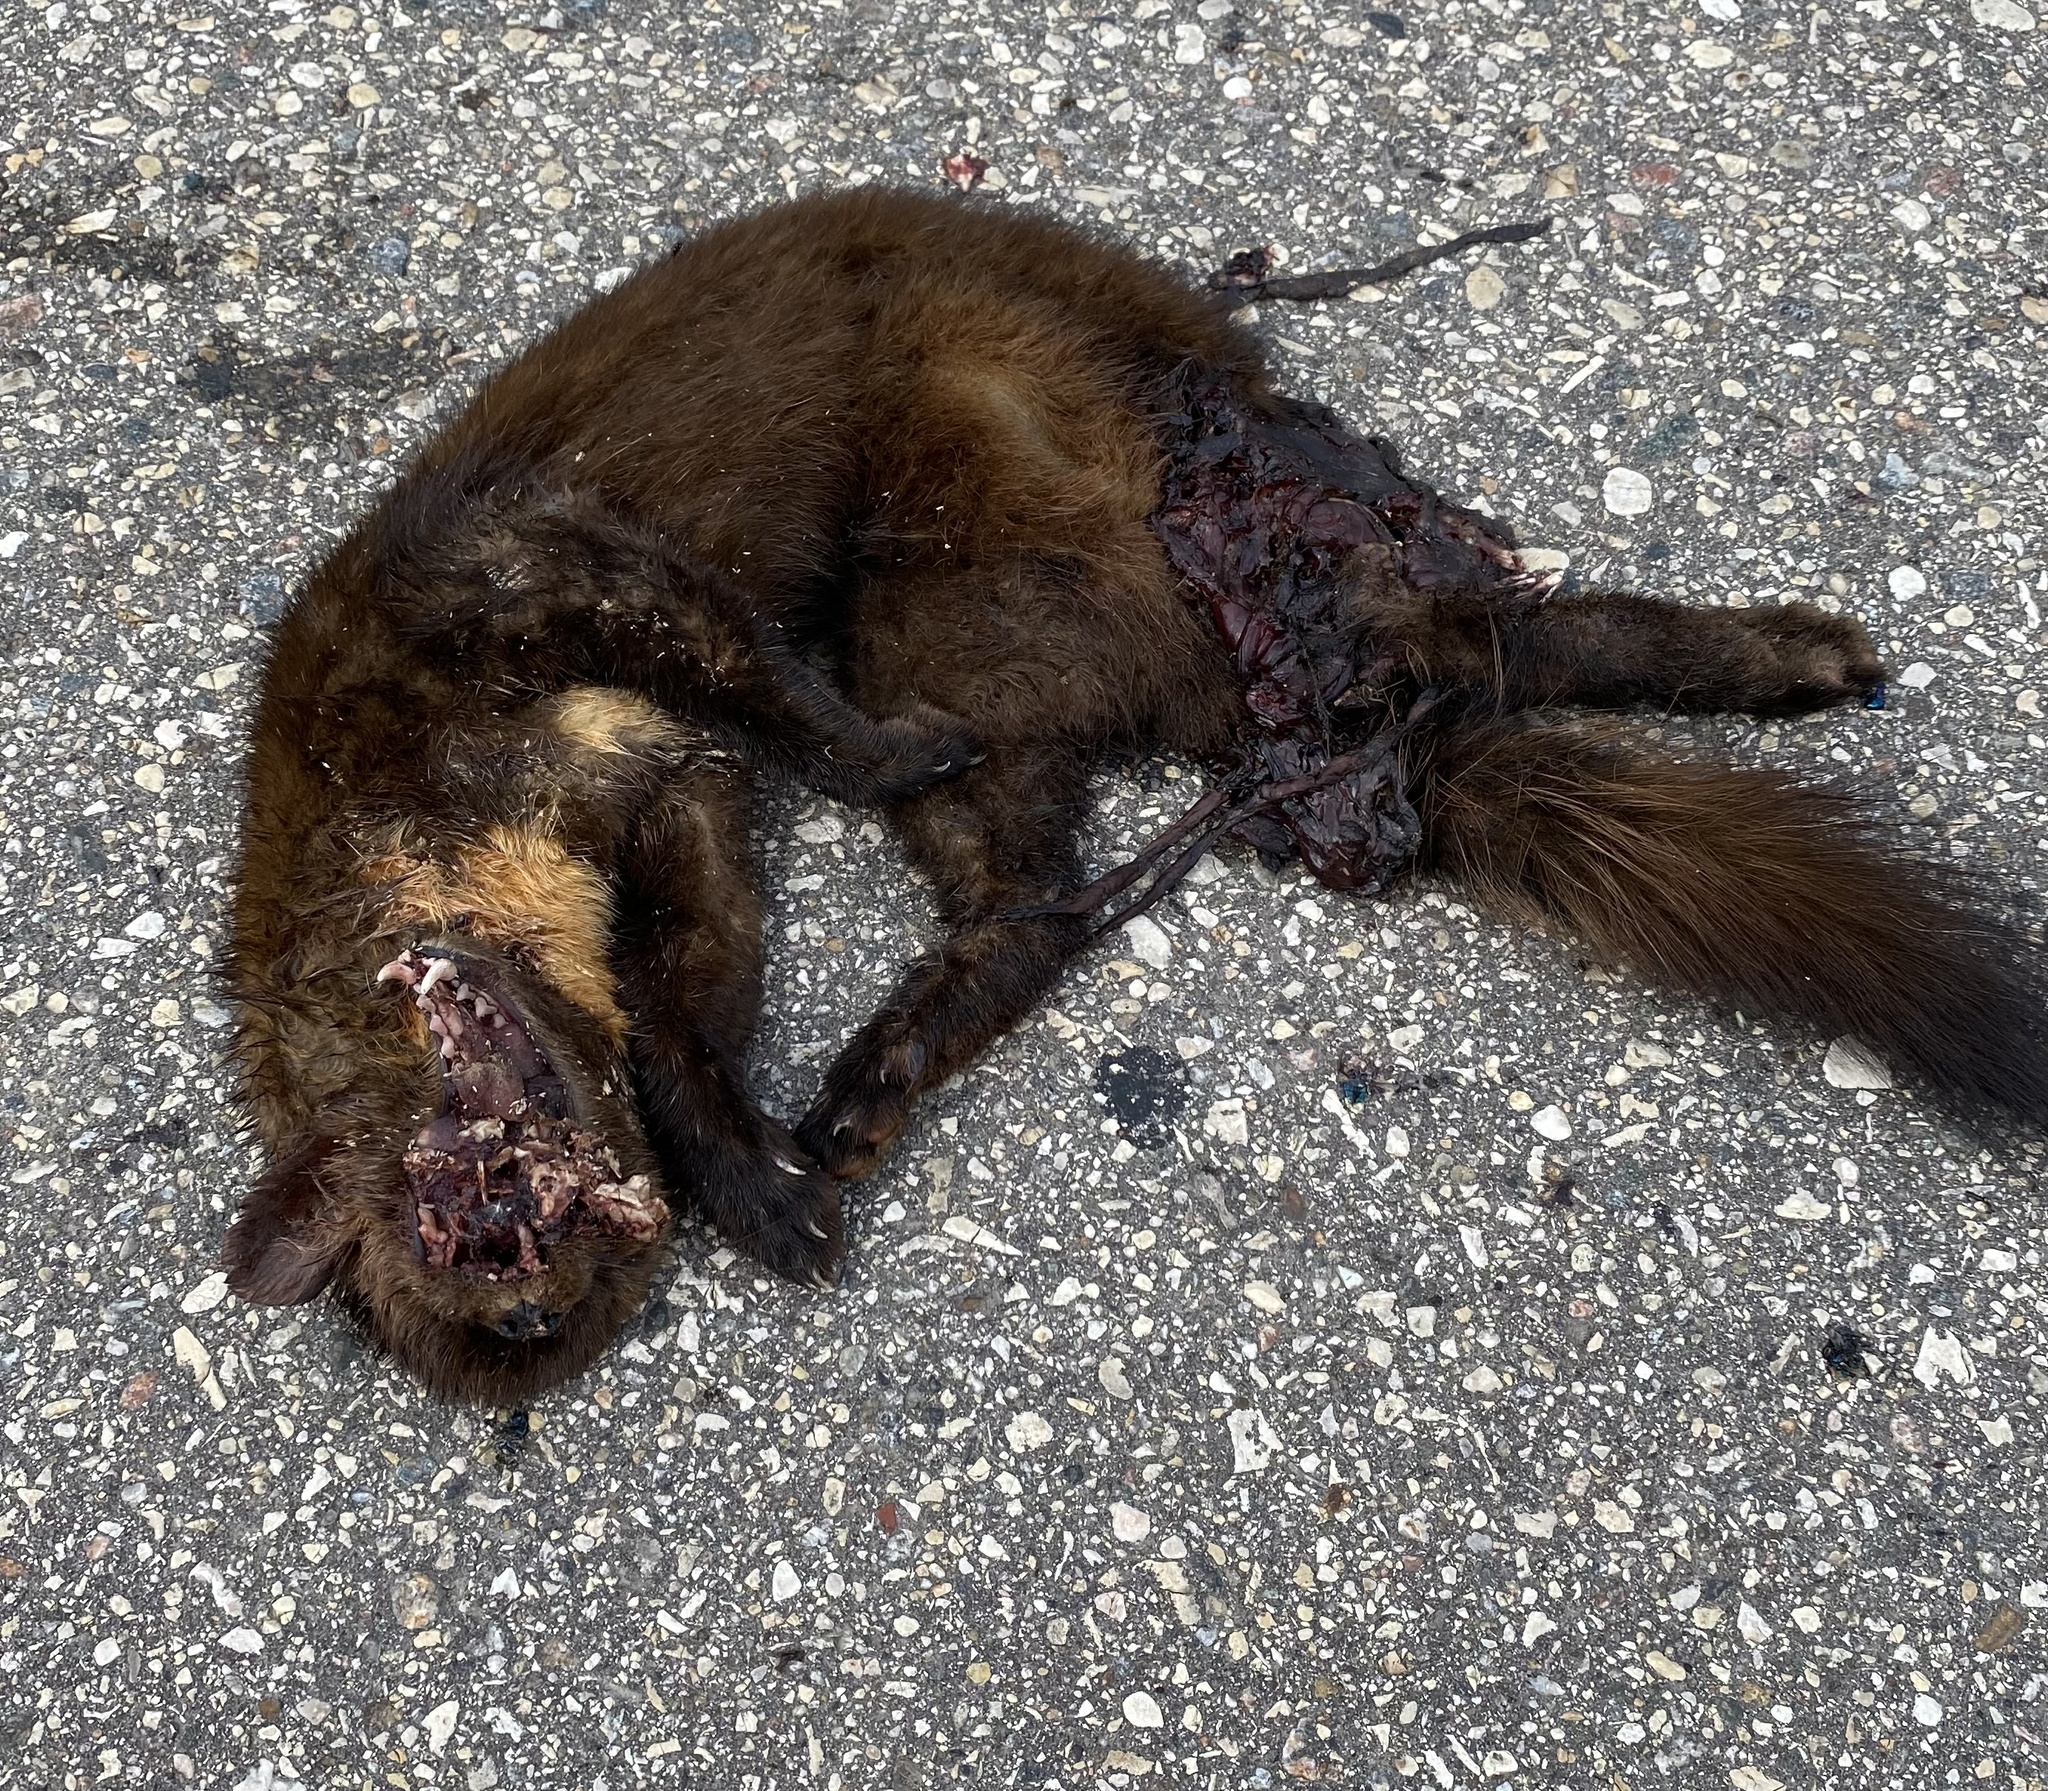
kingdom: Animalia
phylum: Chordata
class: Mammalia
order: Carnivora
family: Mustelidae
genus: Martes
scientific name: Martes americana
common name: American marten
